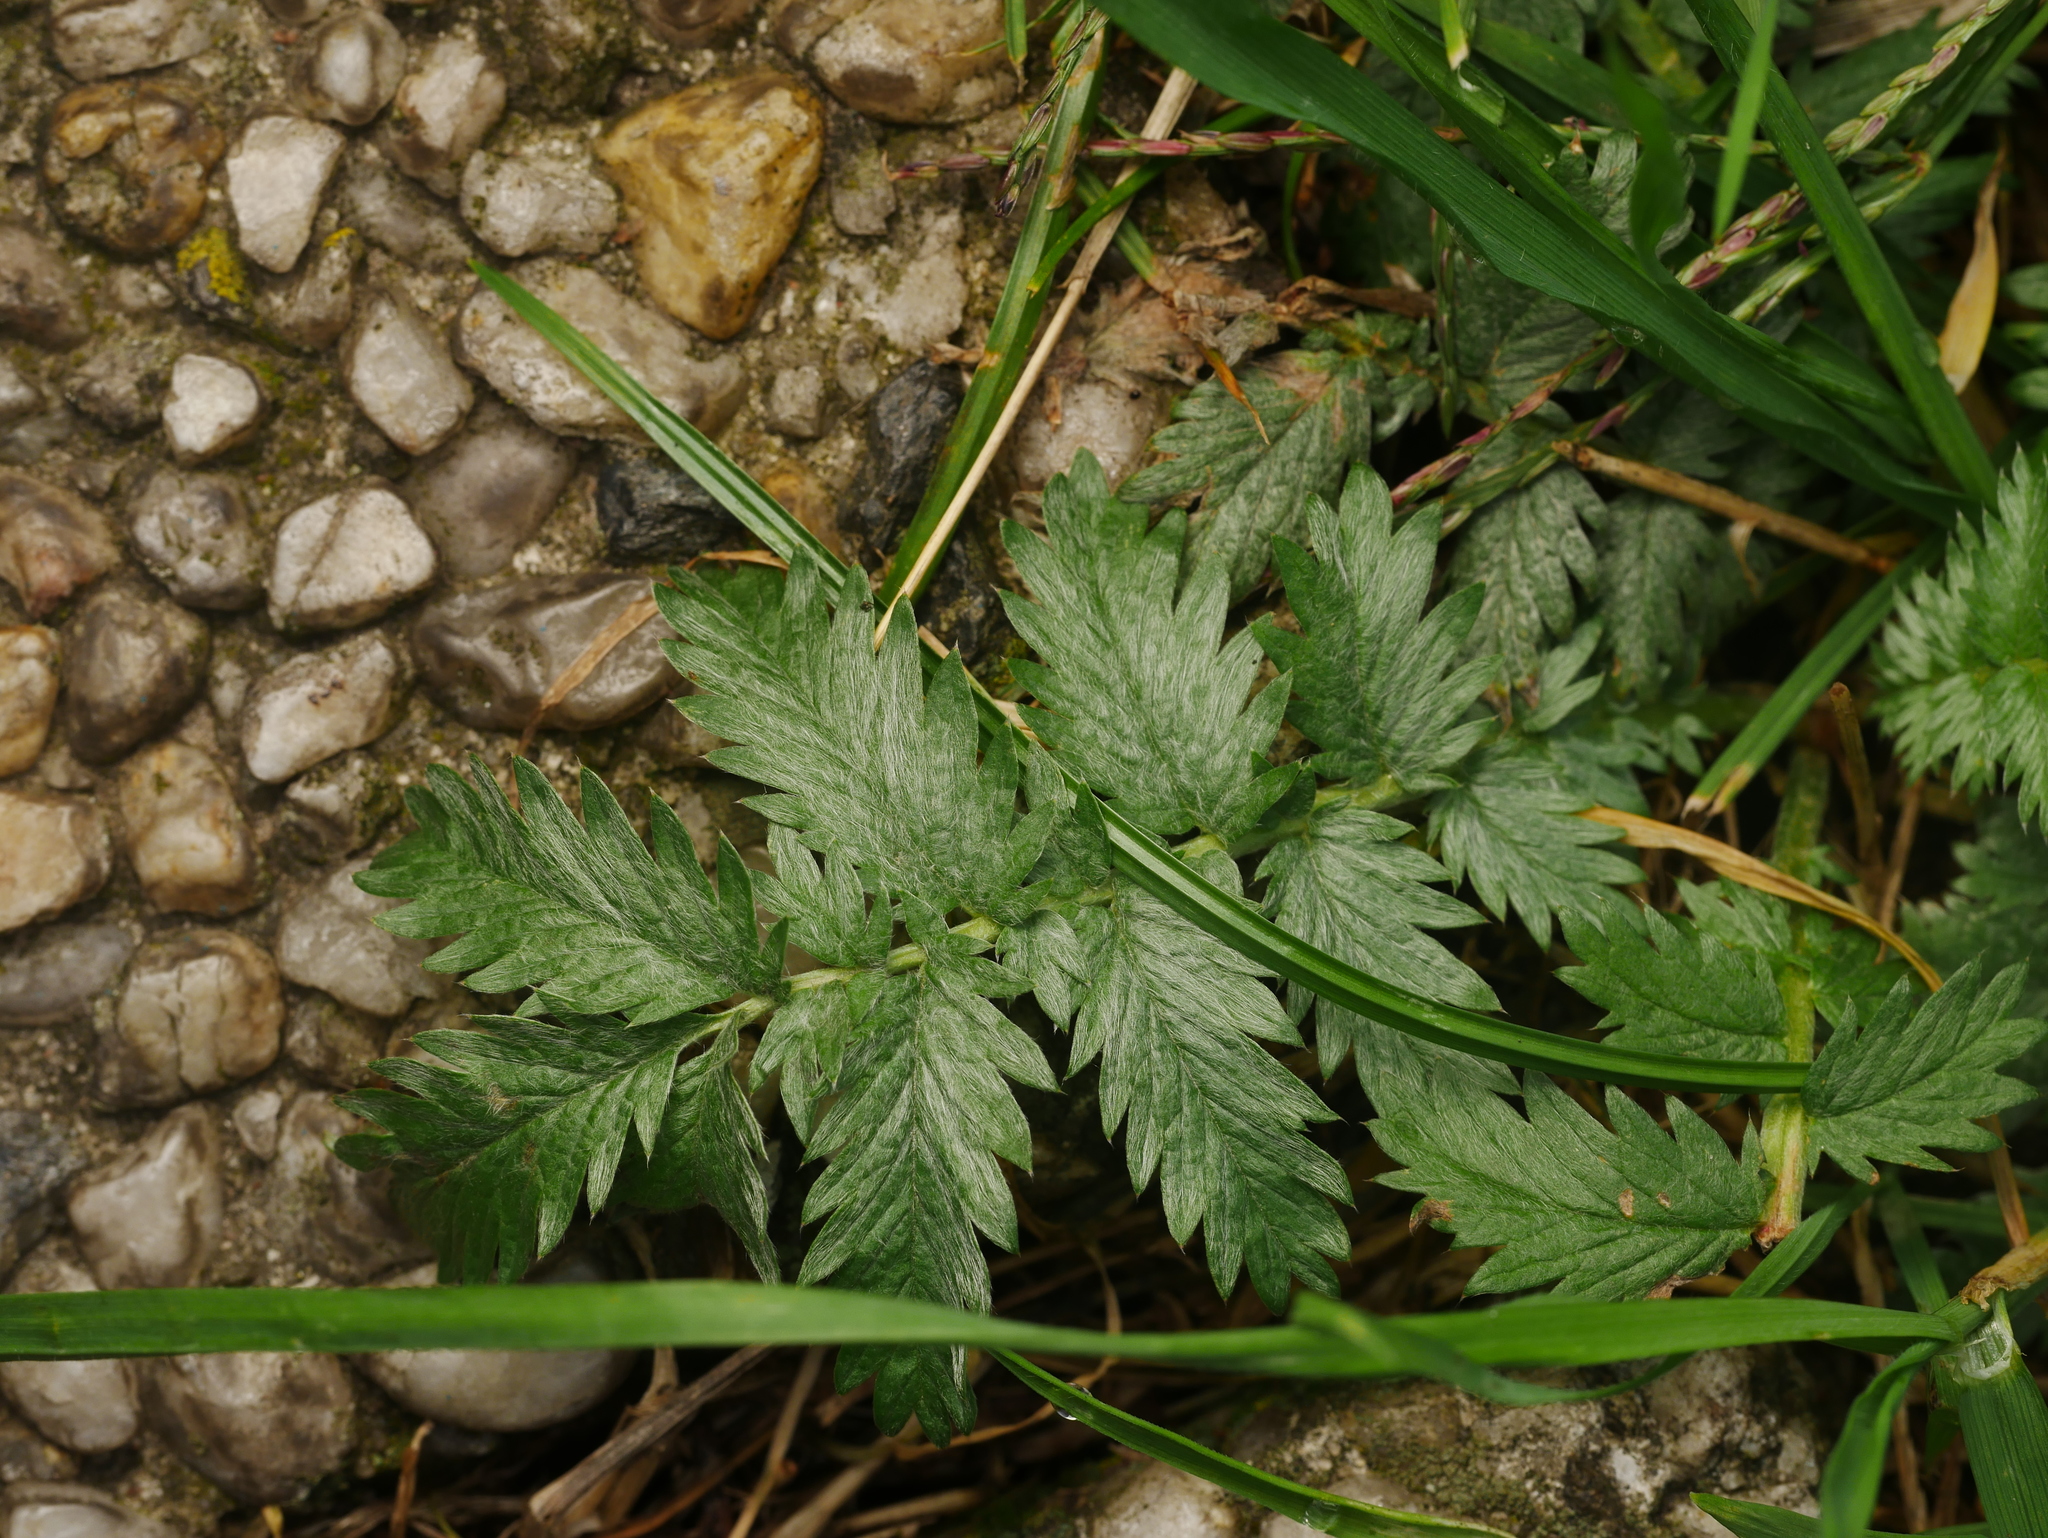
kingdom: Plantae
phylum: Tracheophyta
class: Magnoliopsida
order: Rosales
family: Rosaceae
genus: Argentina
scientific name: Argentina anserina
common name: Common silverweed
